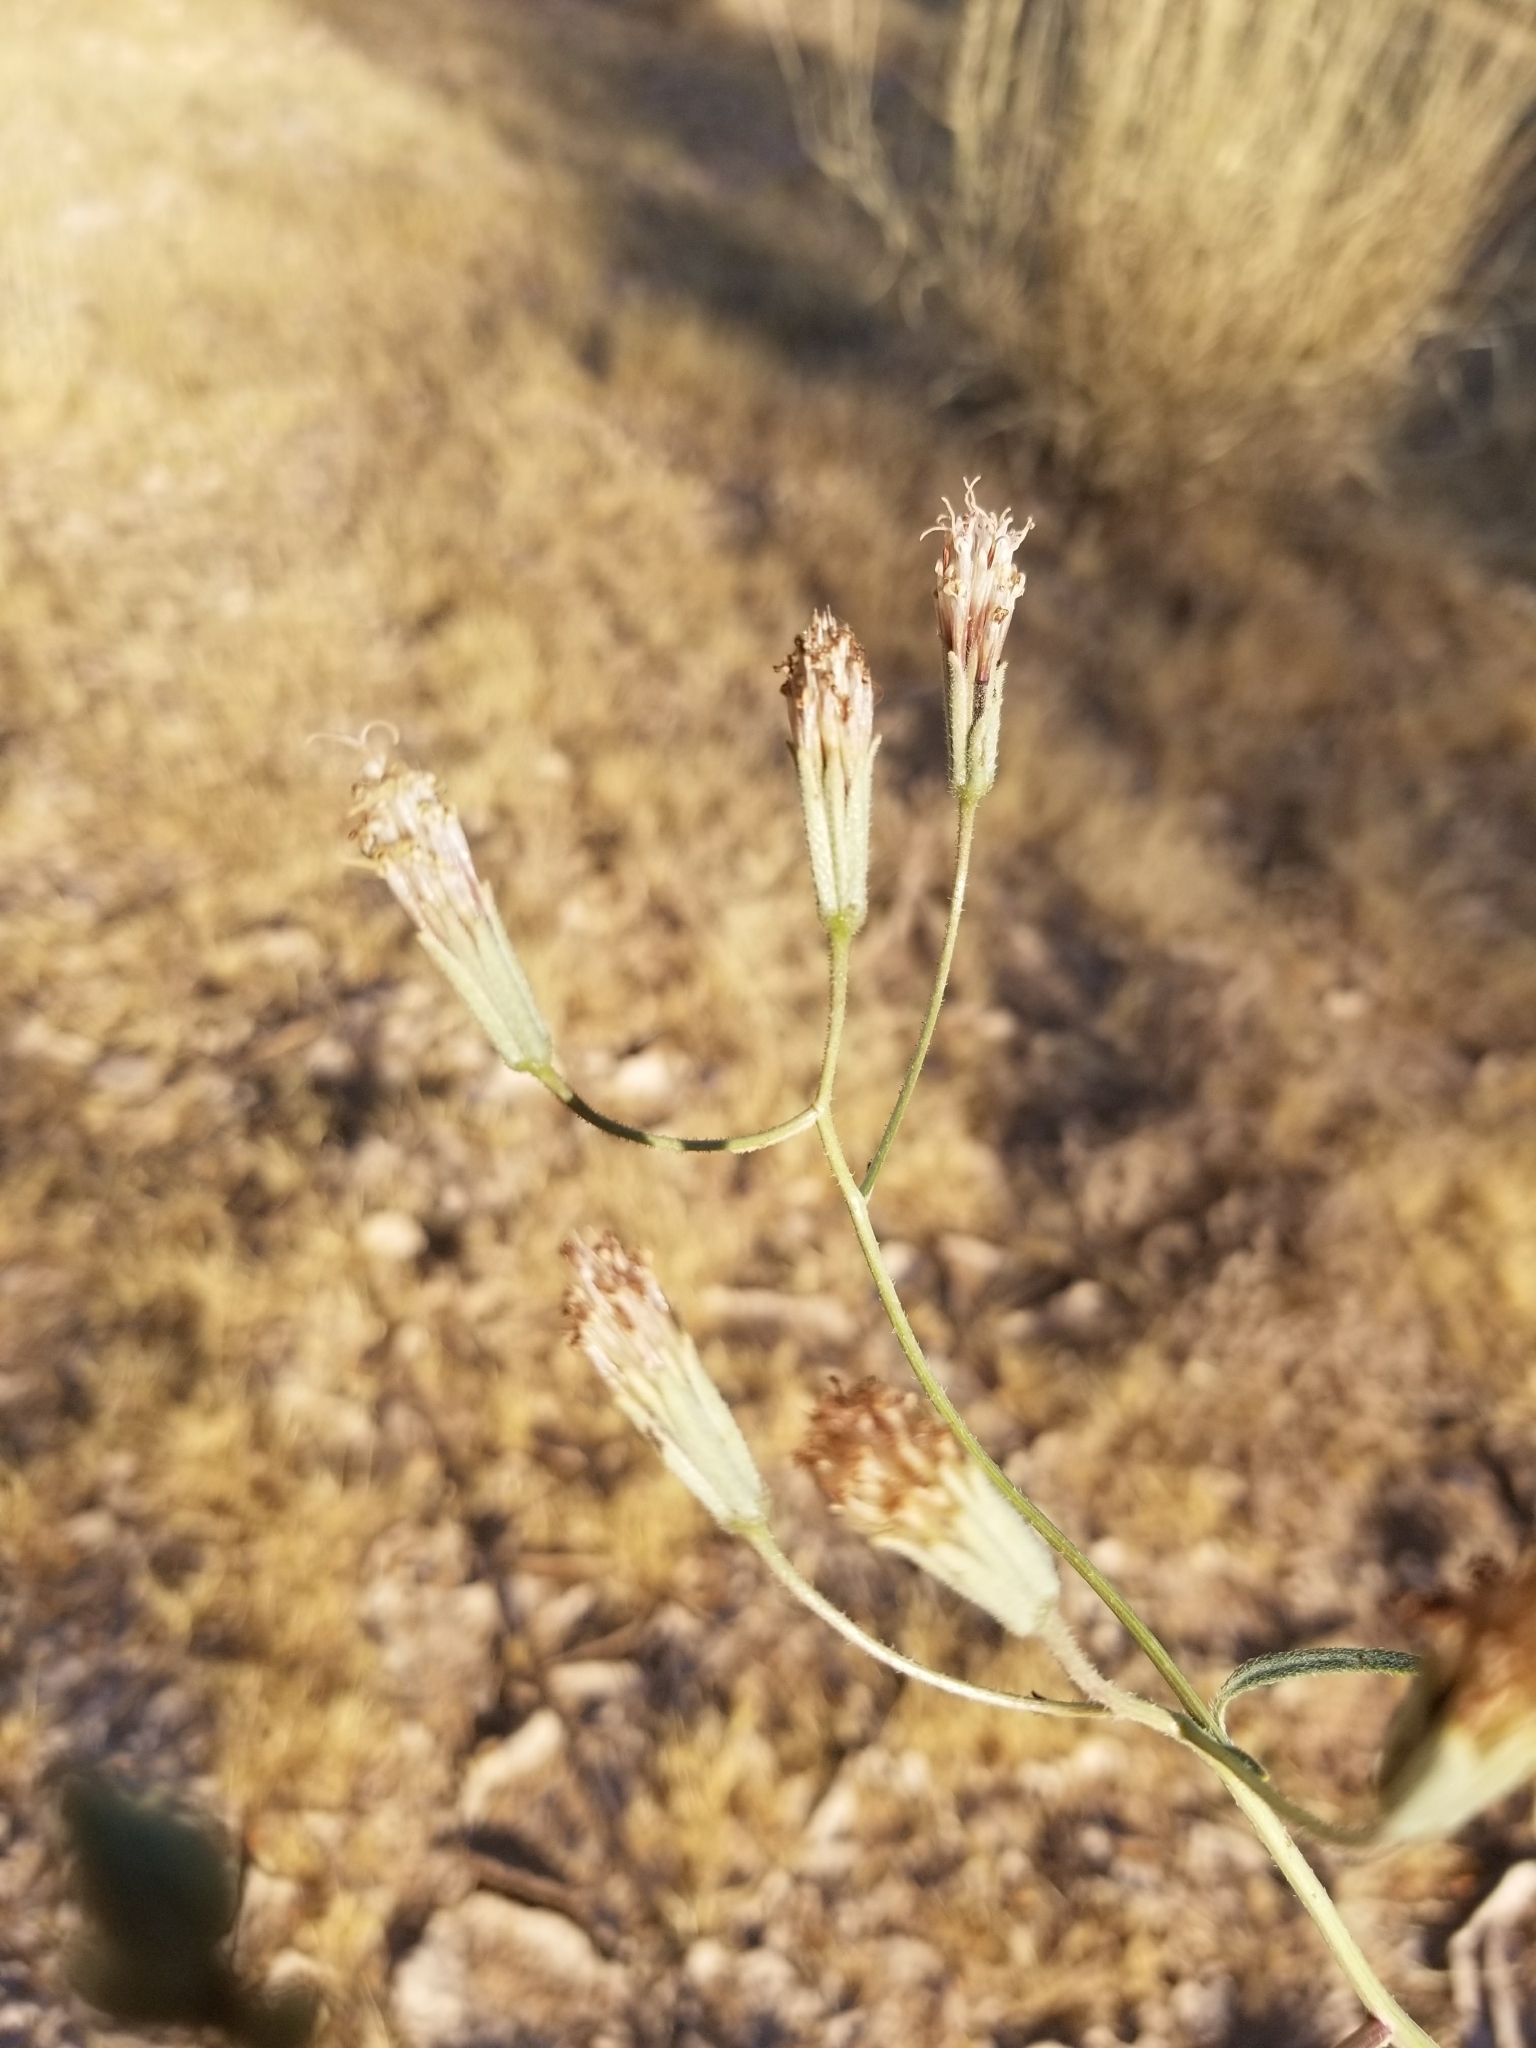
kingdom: Plantae
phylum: Tracheophyta
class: Magnoliopsida
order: Asterales
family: Asteraceae
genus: Palafoxia
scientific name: Palafoxia arida
